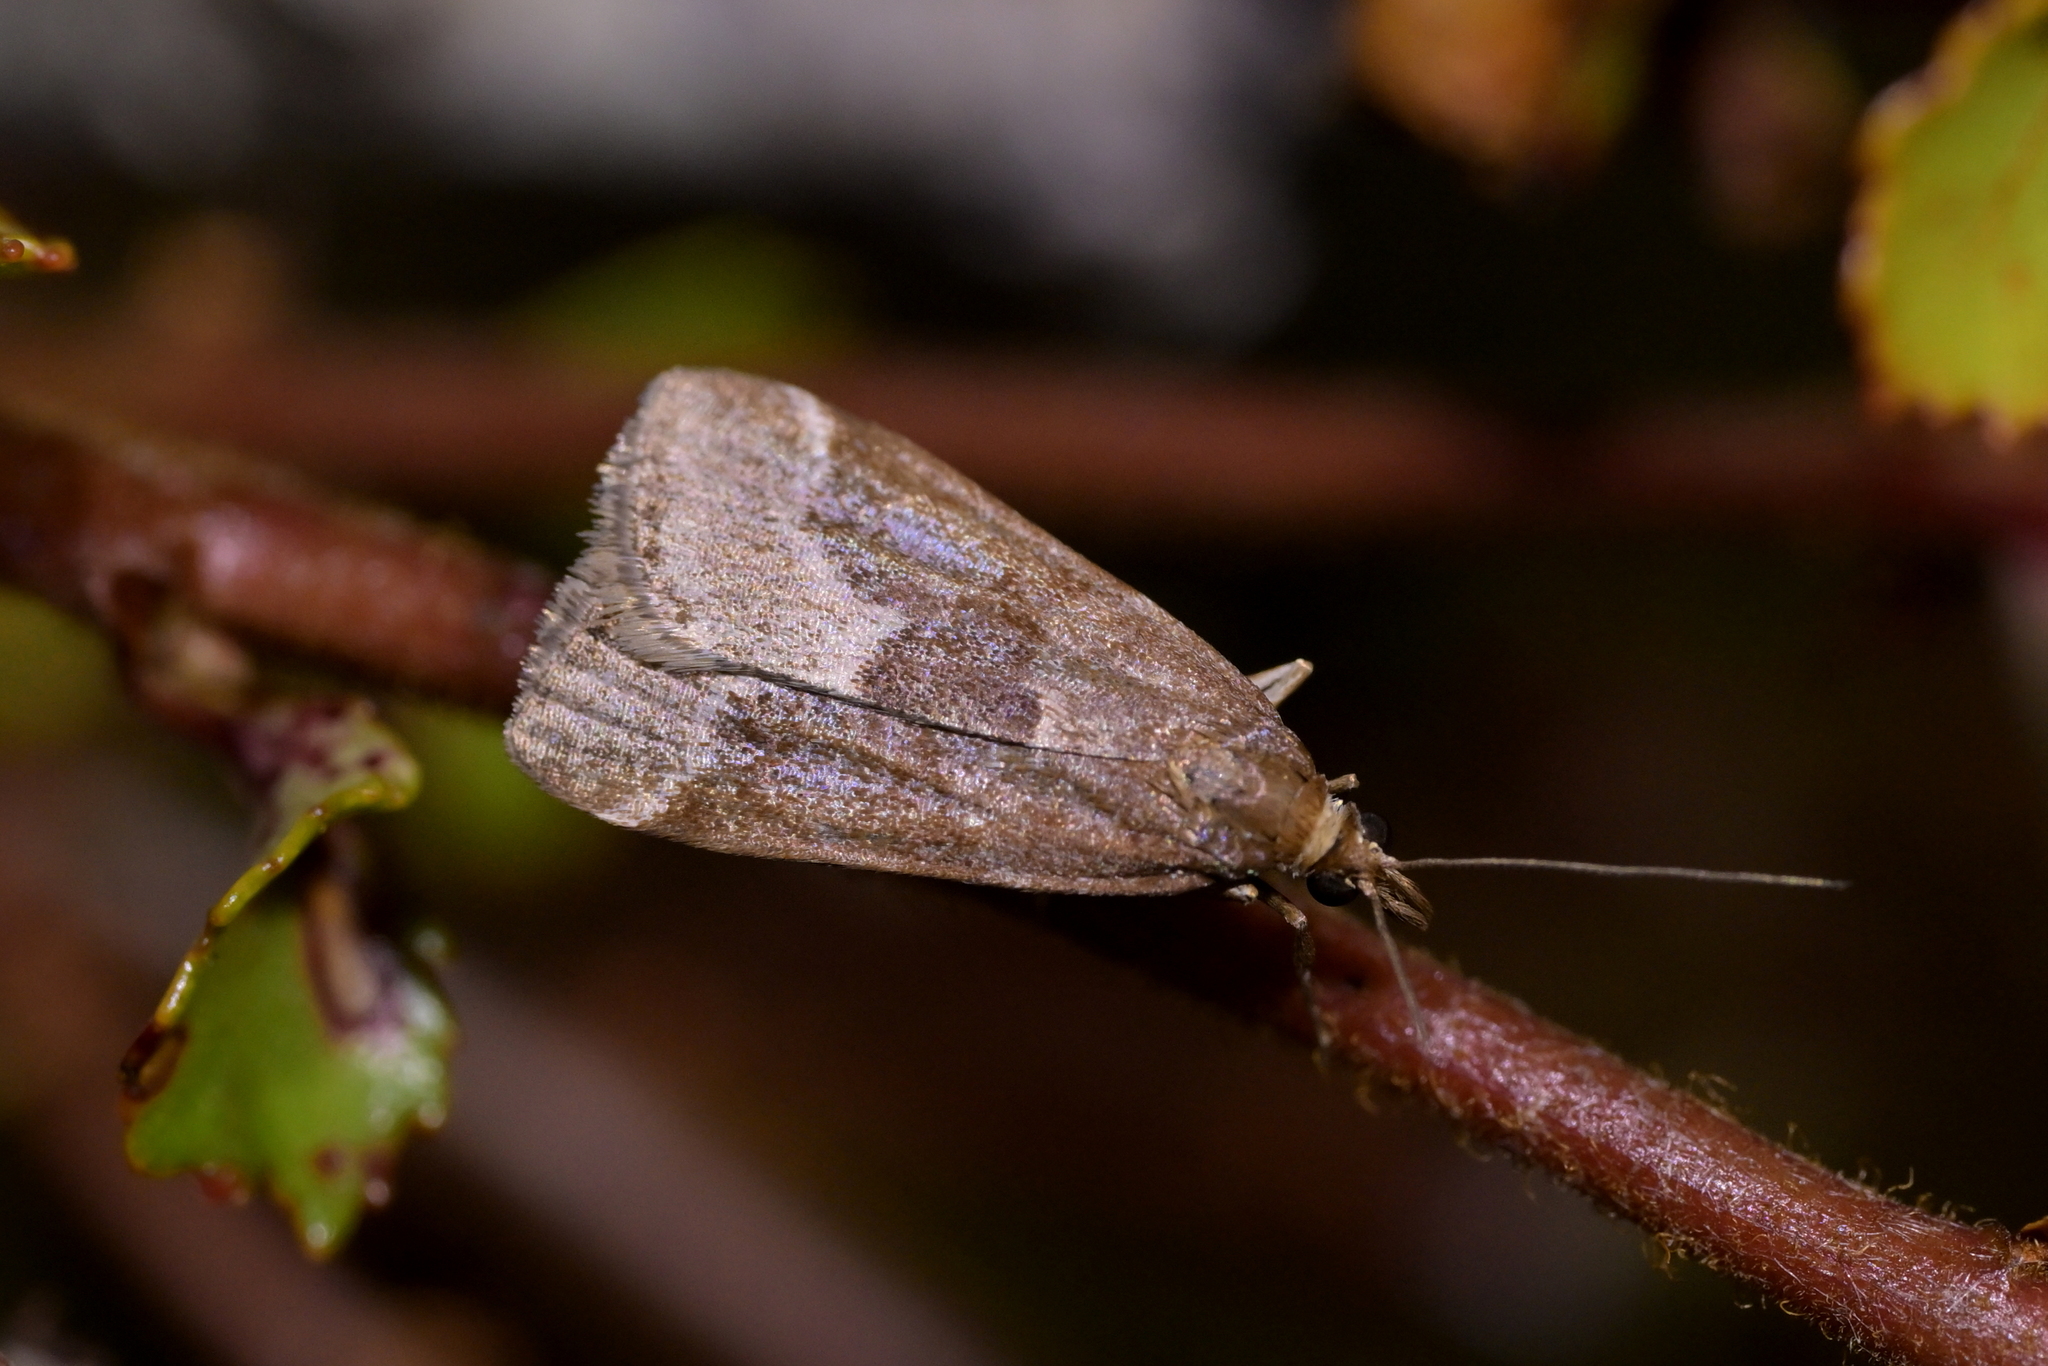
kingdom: Animalia
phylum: Arthropoda
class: Insecta
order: Lepidoptera
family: Crambidae
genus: Eudonia
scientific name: Eudonia feredayi
